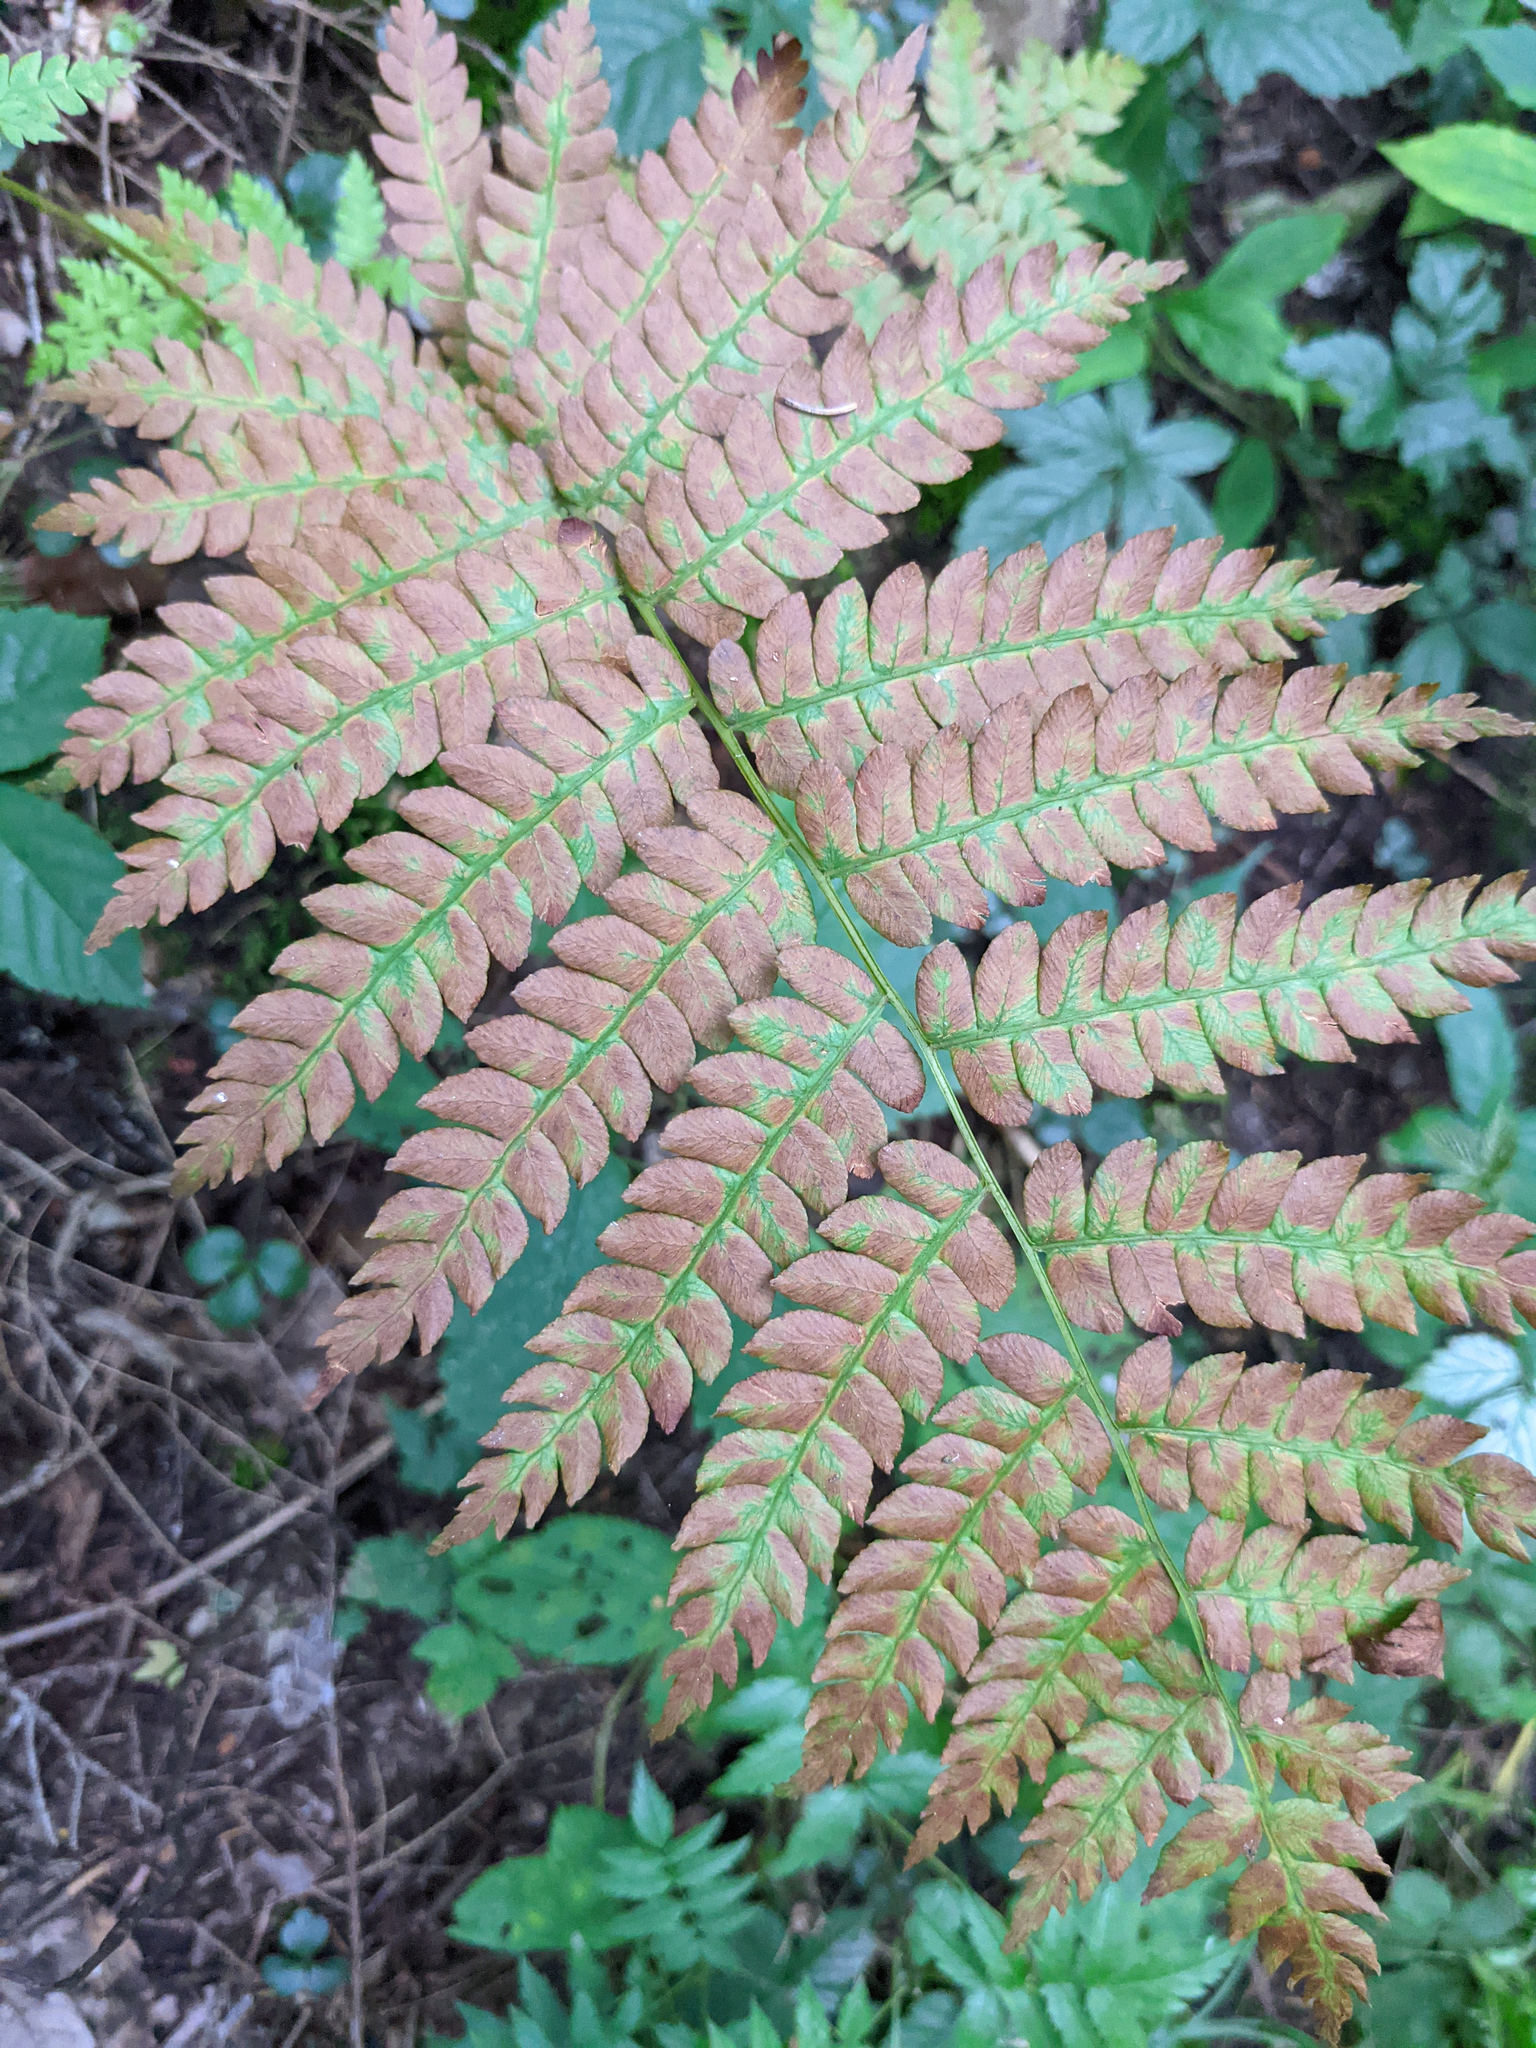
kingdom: Plantae
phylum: Tracheophyta
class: Polypodiopsida
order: Osmundales
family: Osmundaceae
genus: Osmundastrum
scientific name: Osmundastrum cinnamomeum
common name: Cinnamon fern
